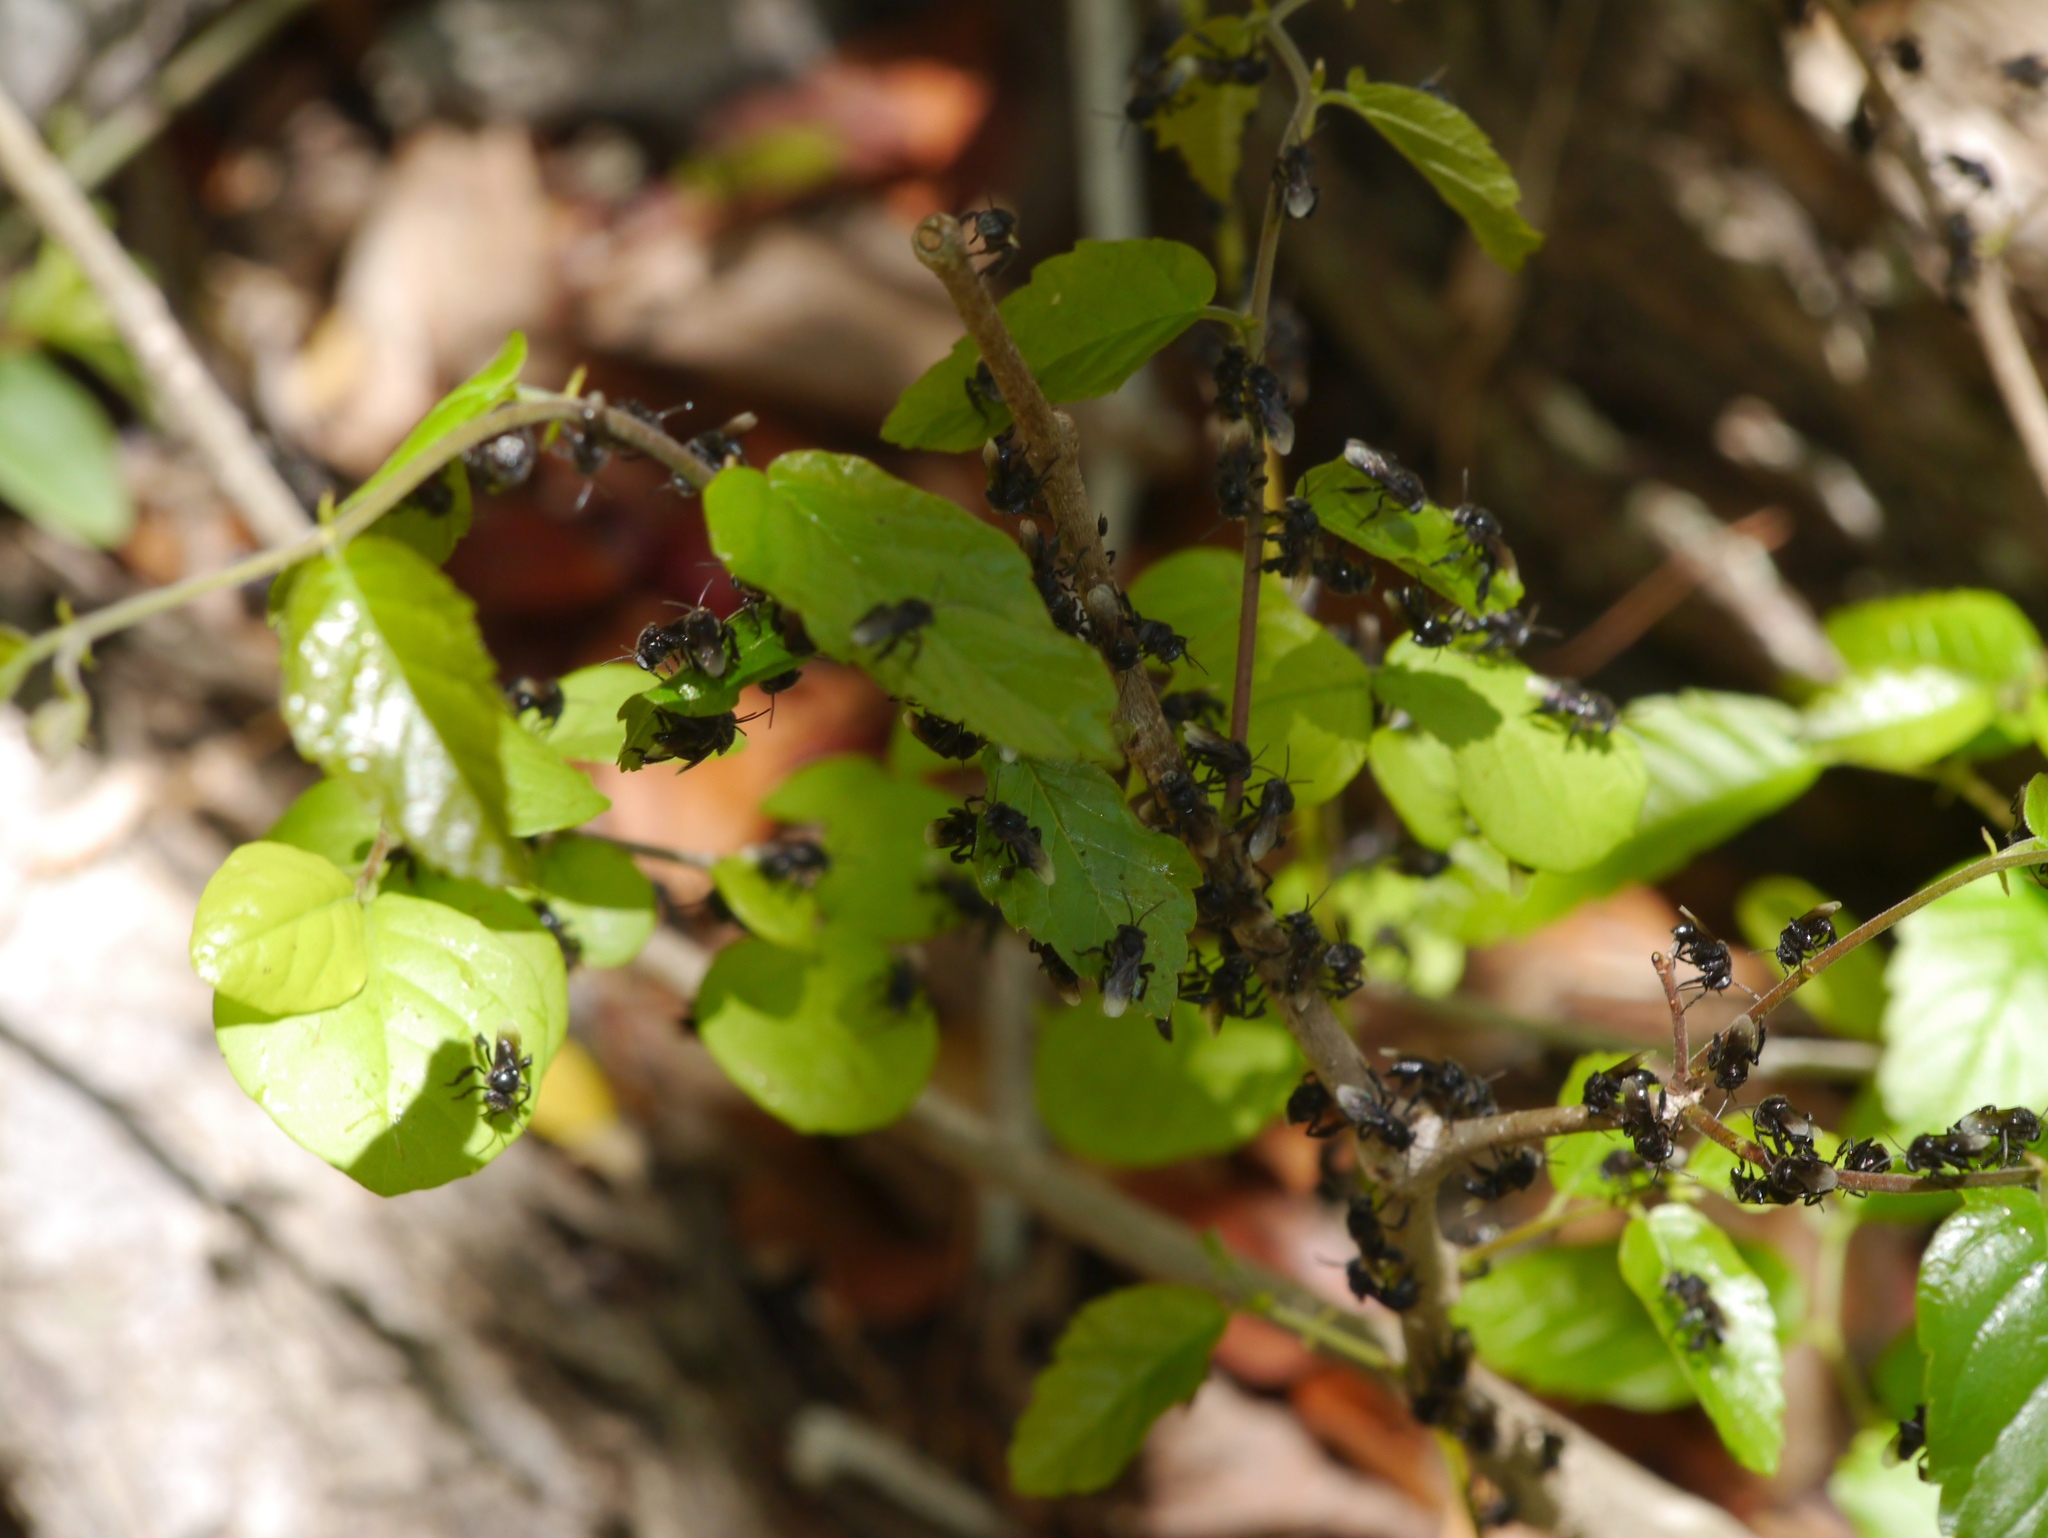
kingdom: Animalia
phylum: Arthropoda
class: Insecta
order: Hymenoptera
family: Apidae
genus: Frieseomelitta
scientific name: Frieseomelitta nigra
